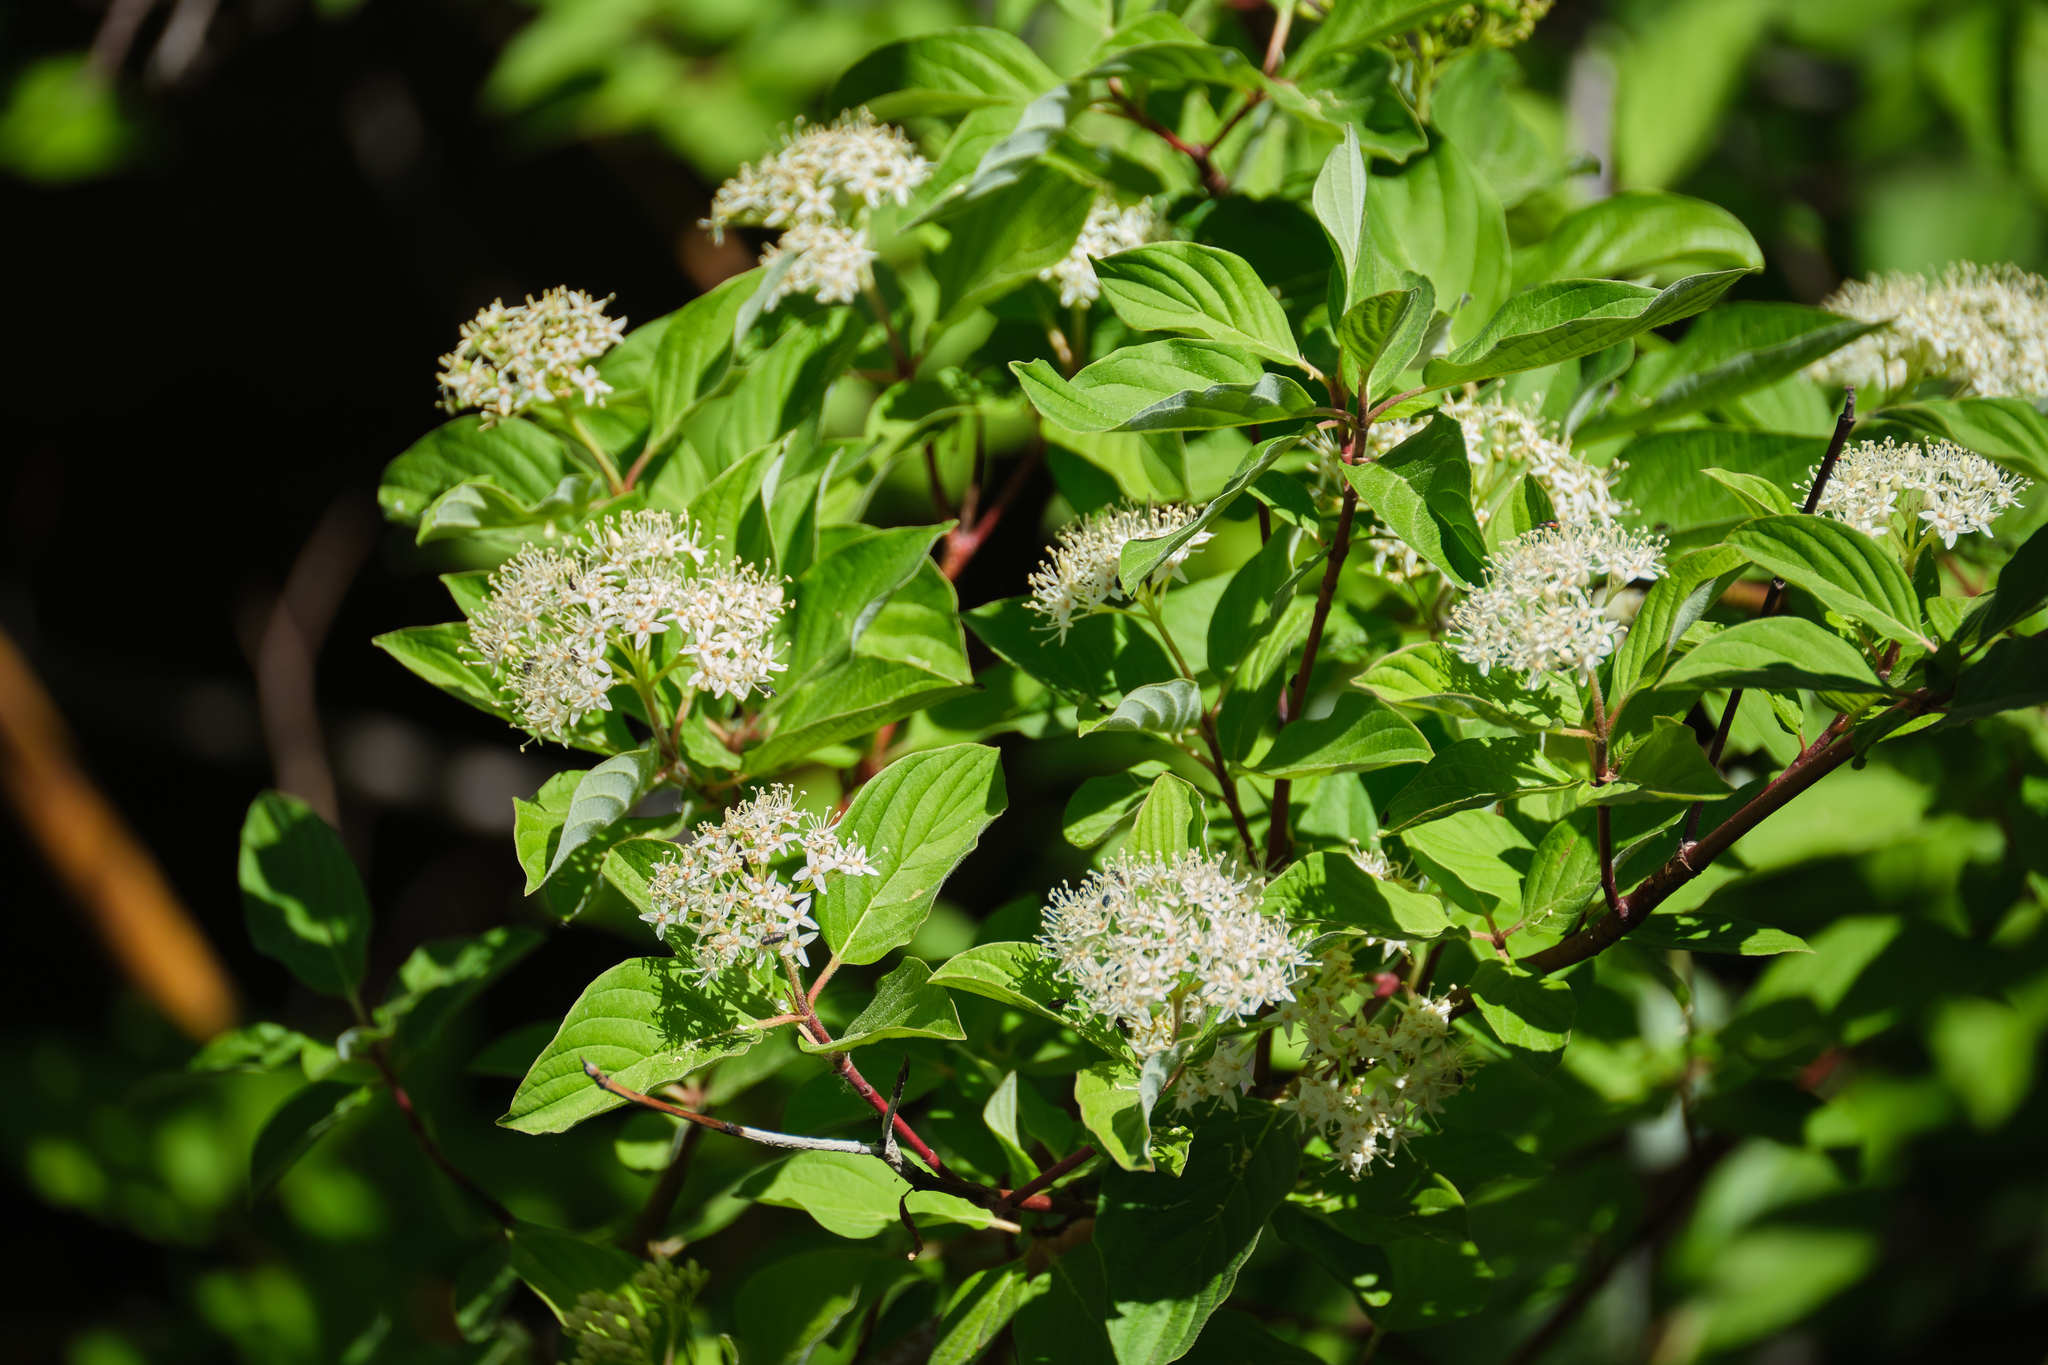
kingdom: Plantae
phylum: Tracheophyta
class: Magnoliopsida
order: Cornales
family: Cornaceae
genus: Cornus
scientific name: Cornus sericea
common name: Red-osier dogwood
